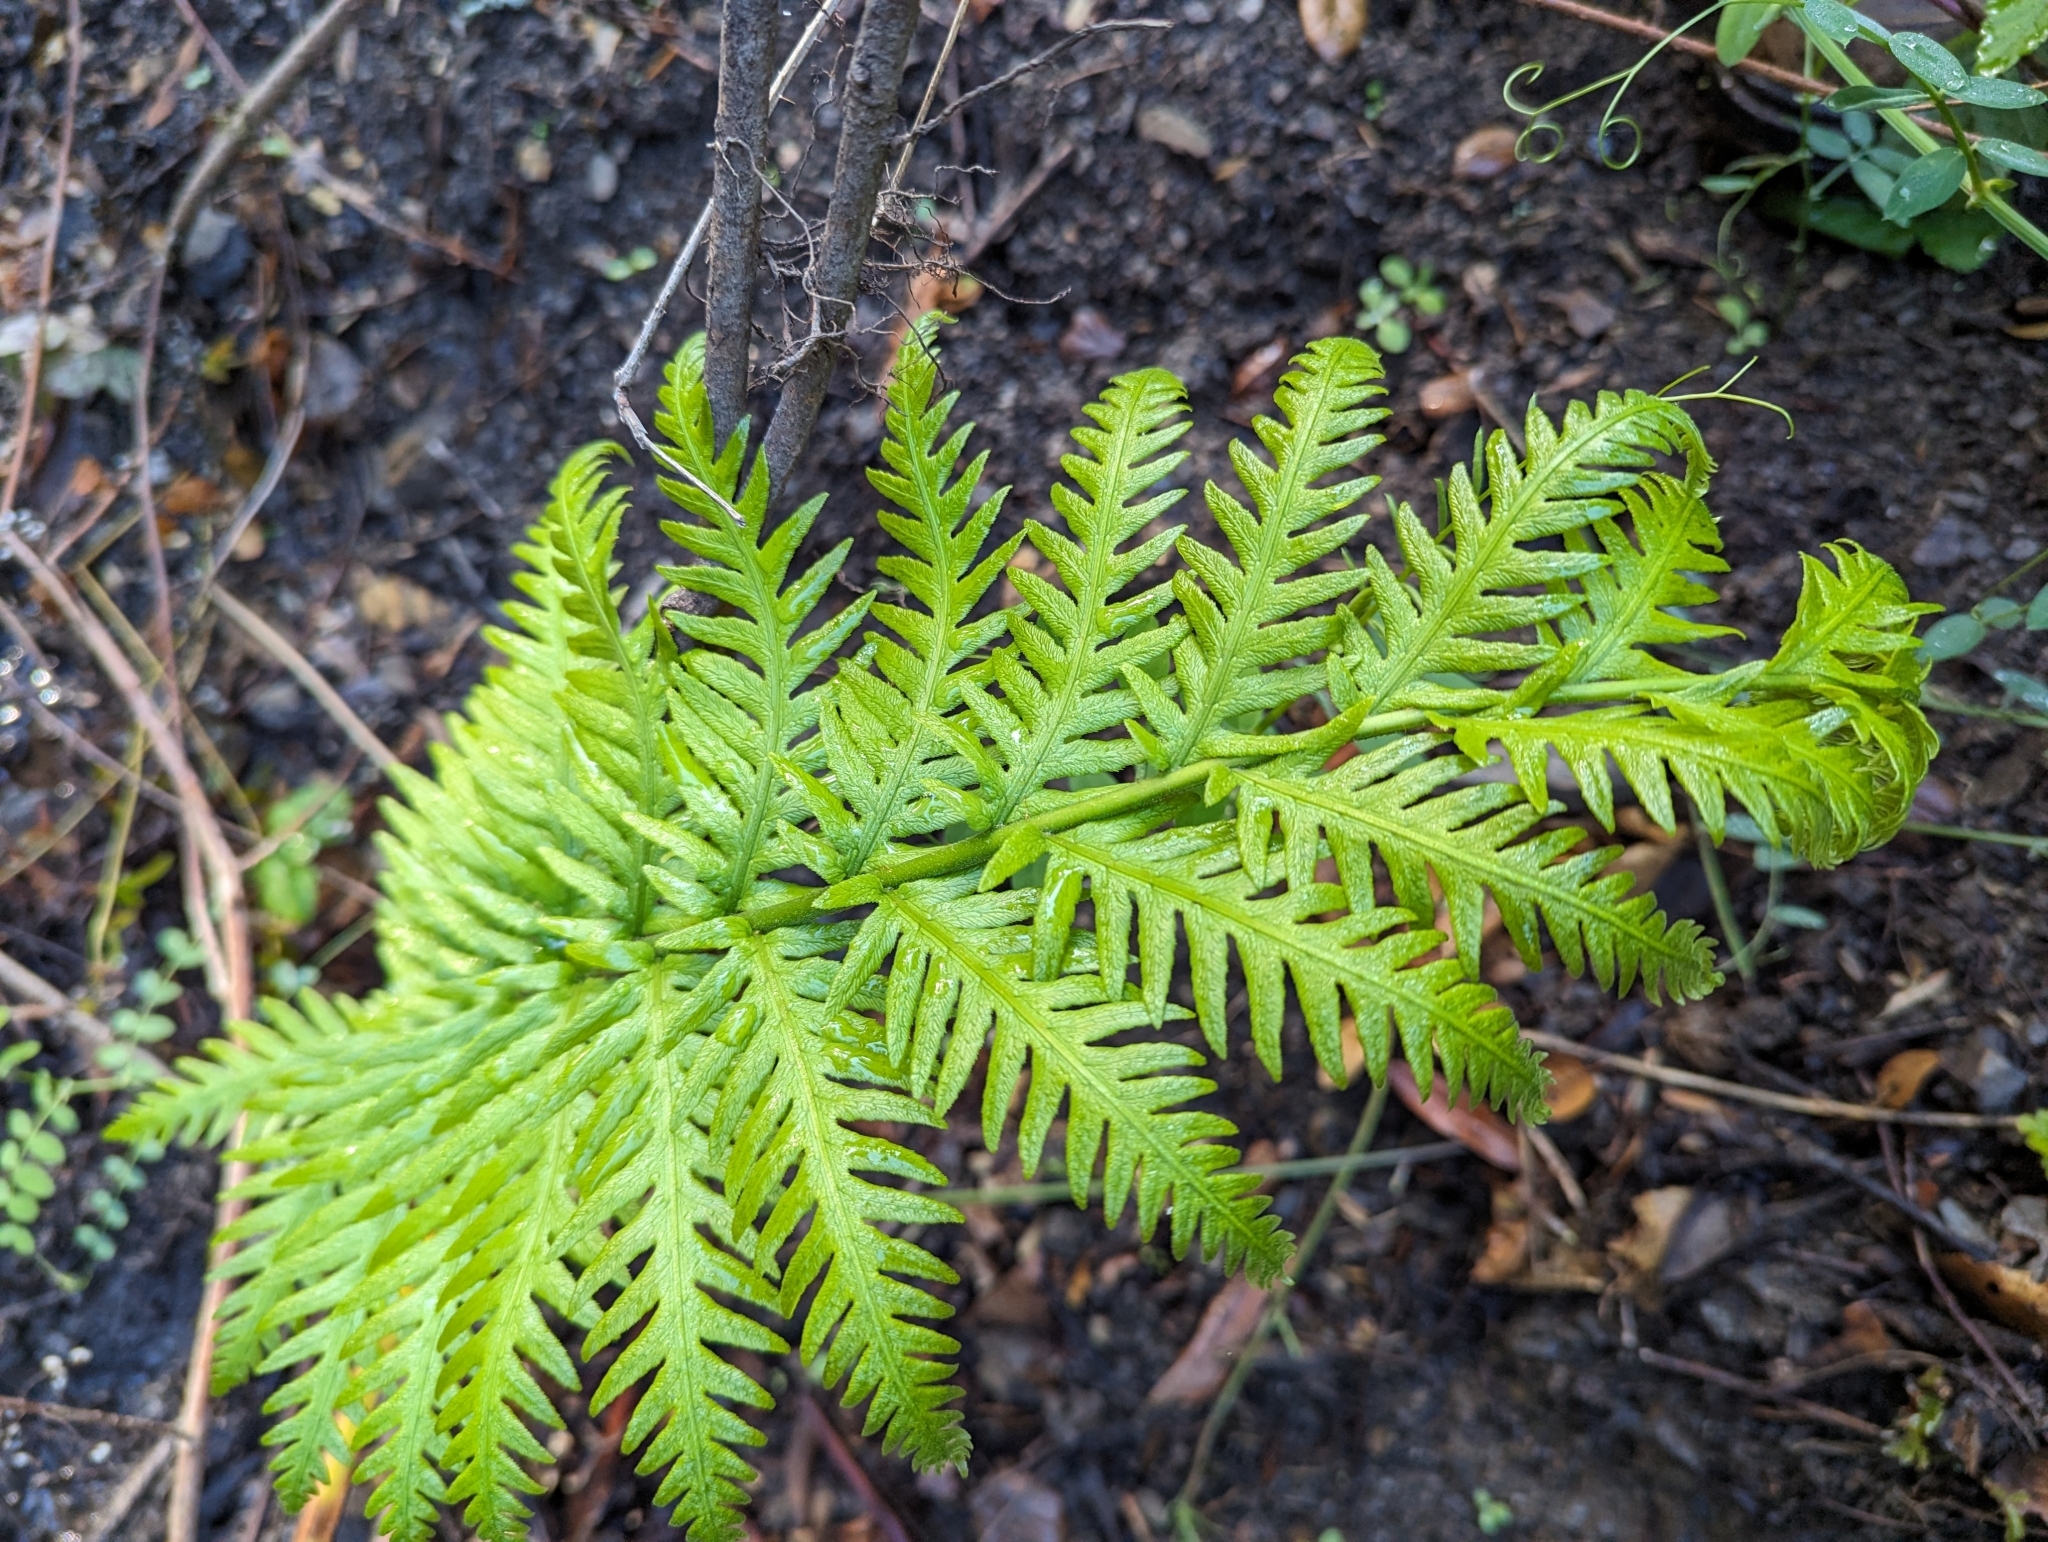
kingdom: Plantae
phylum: Tracheophyta
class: Polypodiopsida
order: Polypodiales
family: Blechnaceae
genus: Woodwardia
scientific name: Woodwardia fimbriata
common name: Giant chain fern
